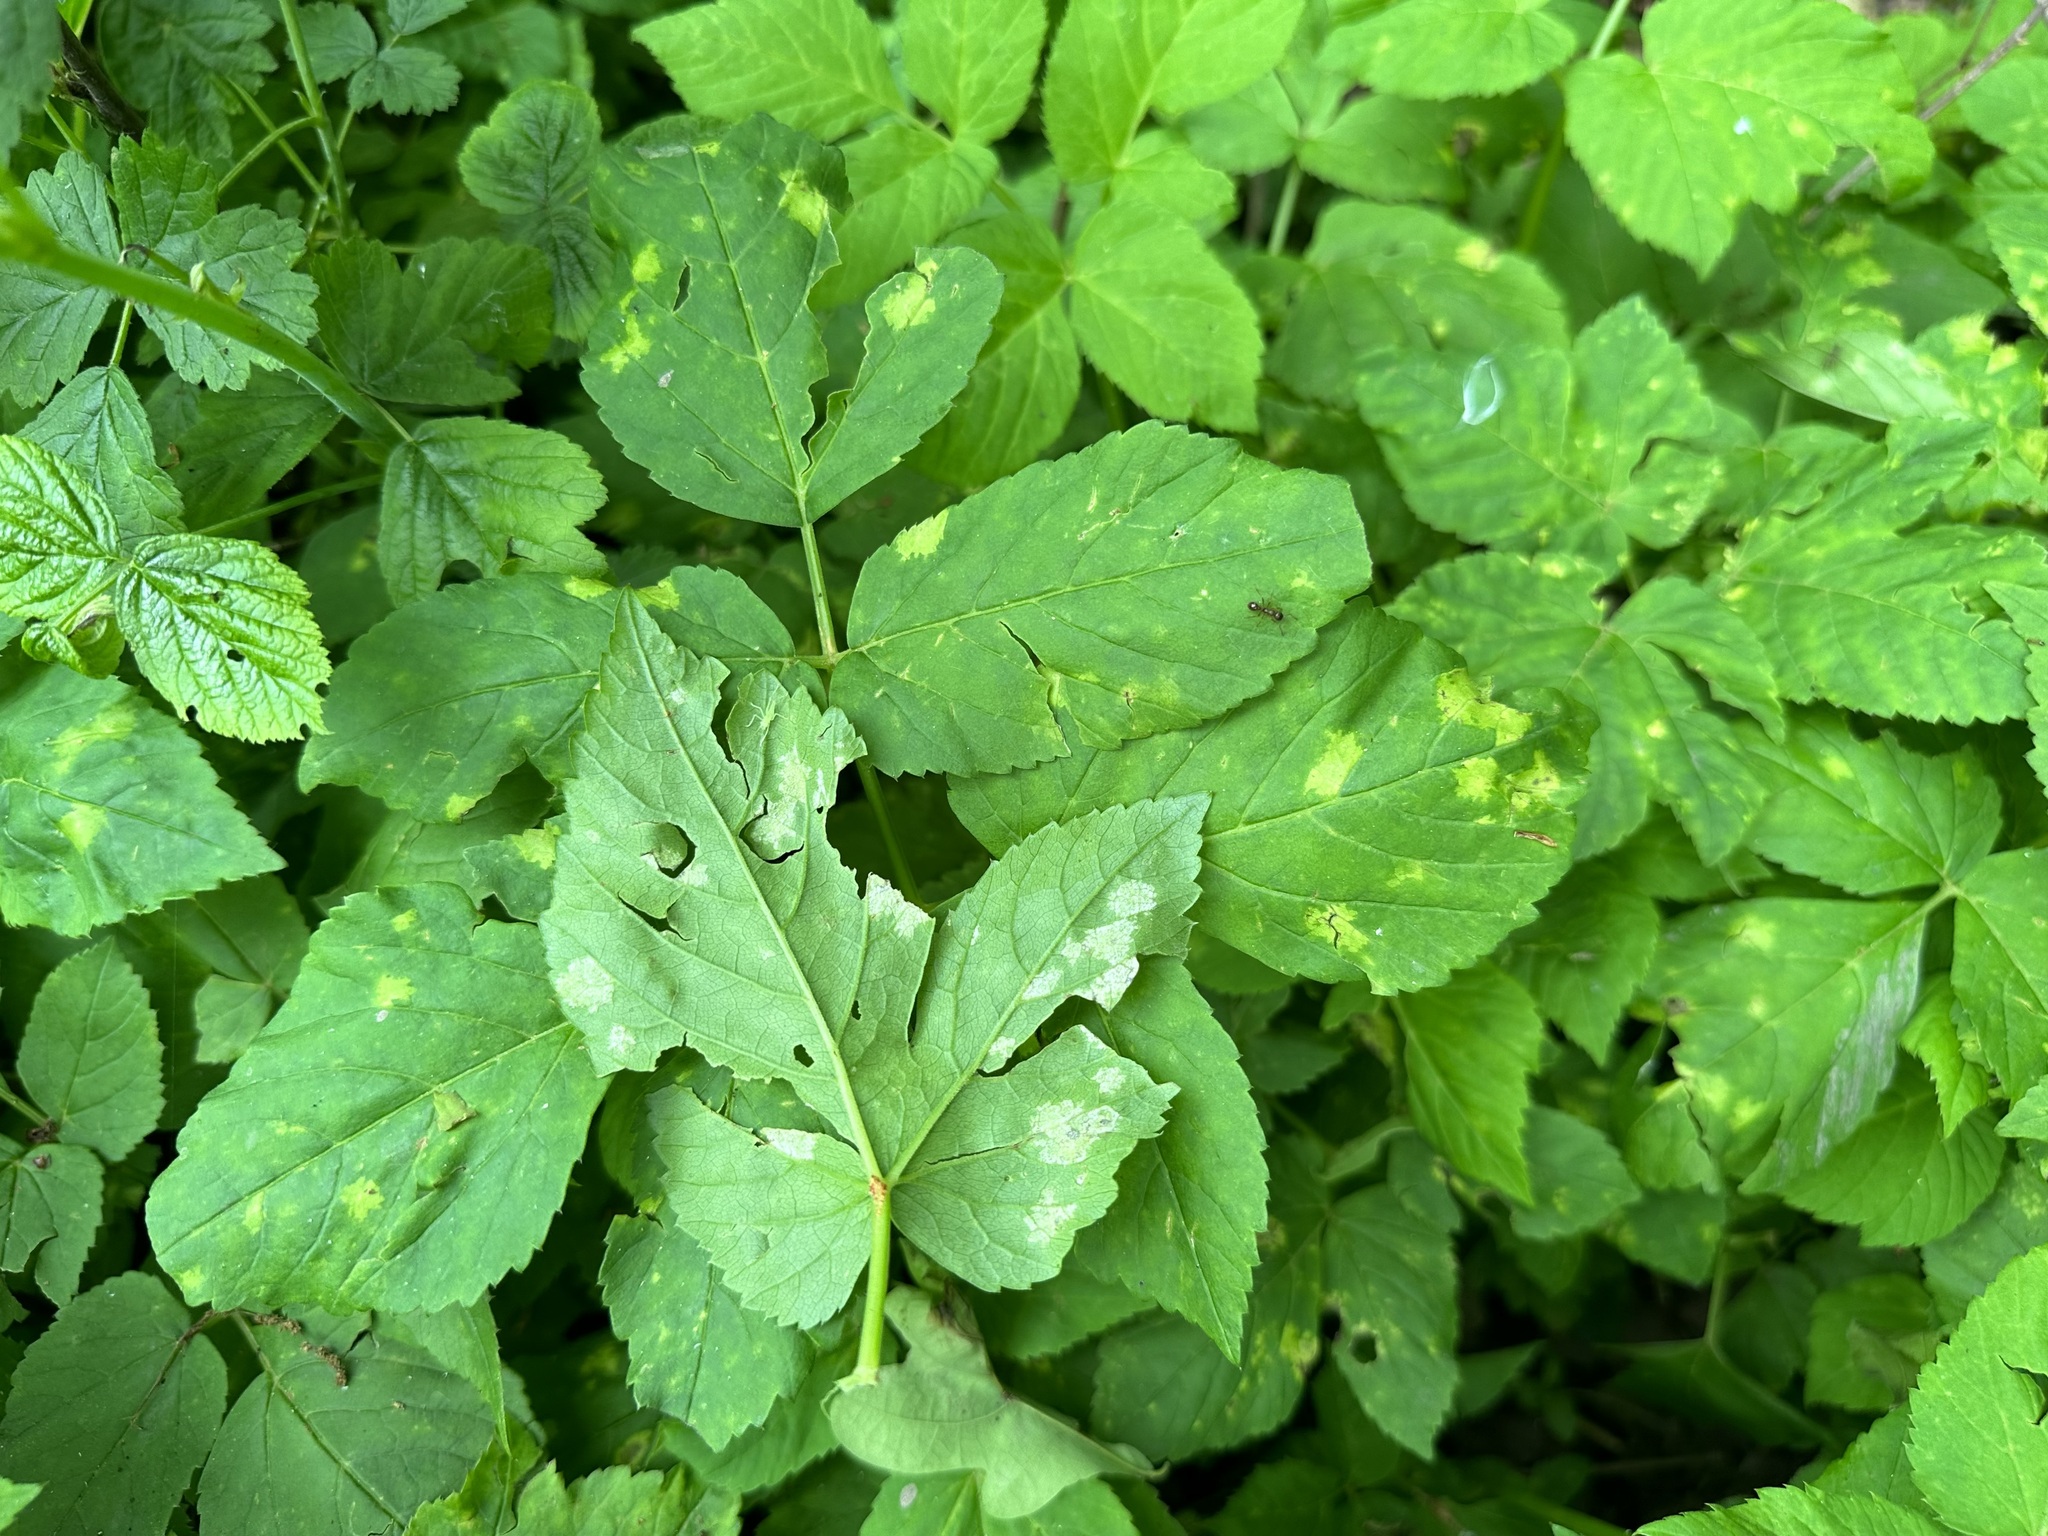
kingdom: Chromista
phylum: Oomycota
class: Peronosporea
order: Peronosporales
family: Peronosporaceae
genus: Peronospora
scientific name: Peronospora crustosa
